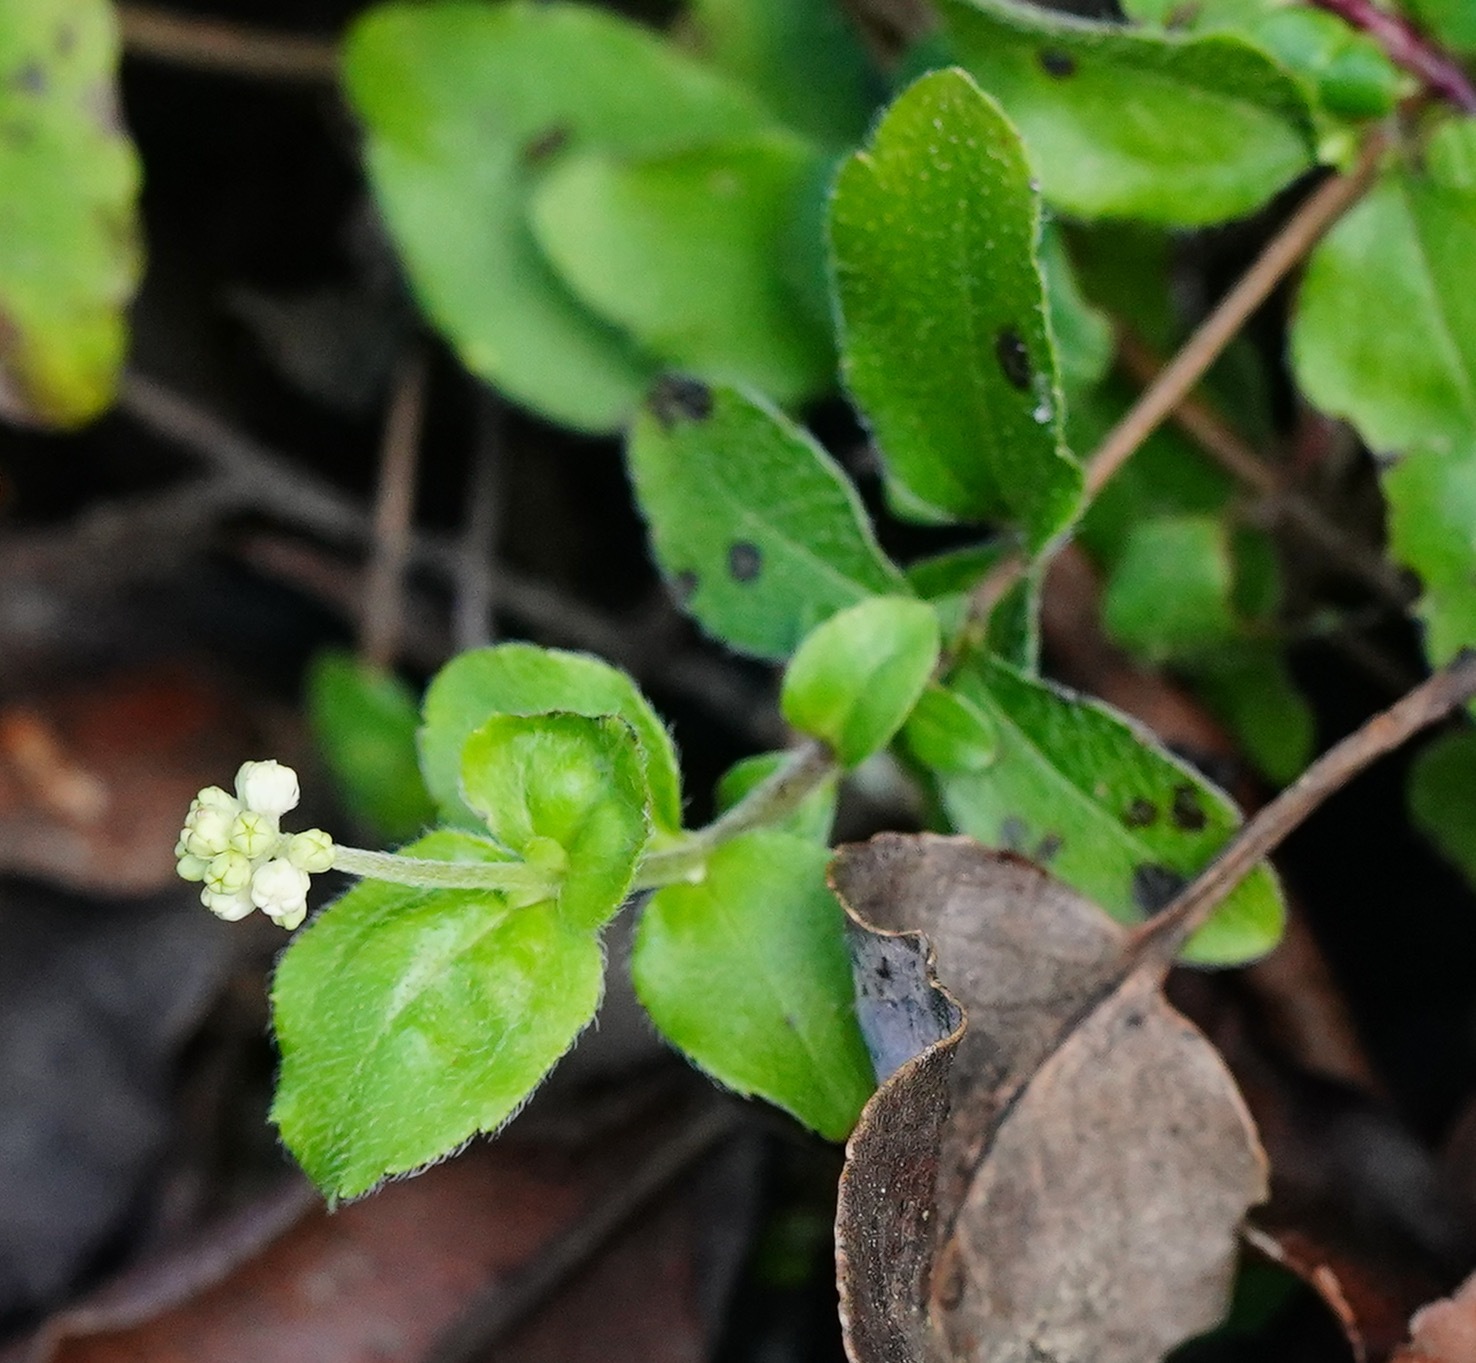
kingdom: Plantae
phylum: Tracheophyta
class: Magnoliopsida
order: Cornales
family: Hydrangeaceae
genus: Whipplea
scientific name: Whipplea modesta
